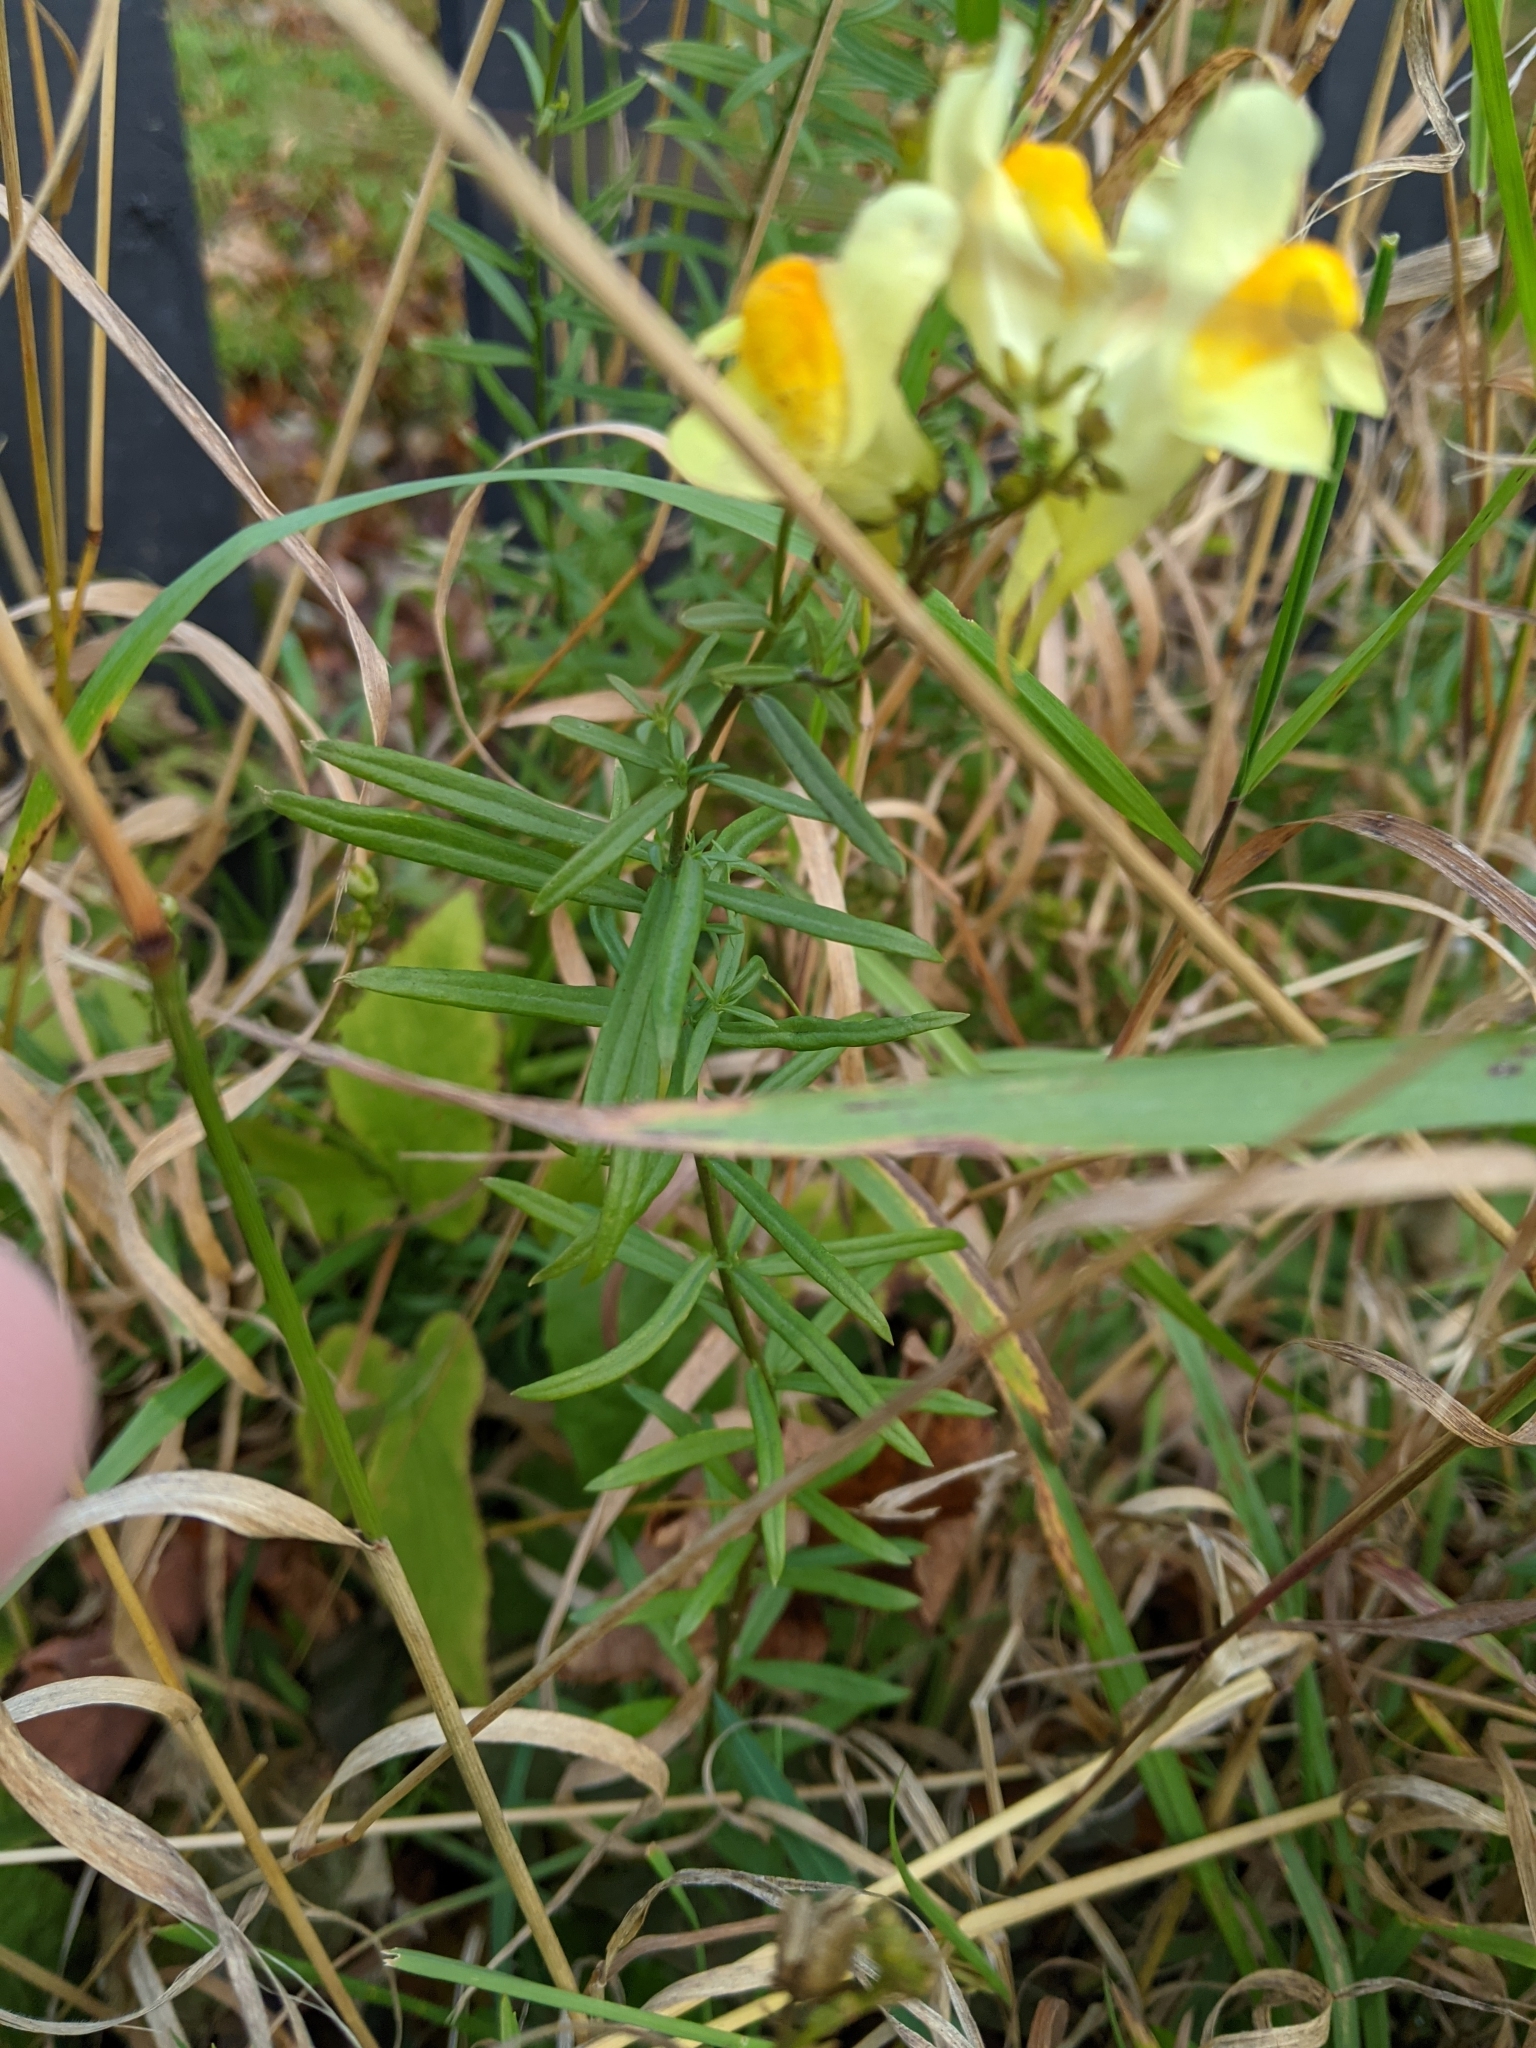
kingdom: Plantae
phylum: Tracheophyta
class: Magnoliopsida
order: Lamiales
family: Plantaginaceae
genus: Linaria
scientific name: Linaria vulgaris
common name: Butter and eggs
